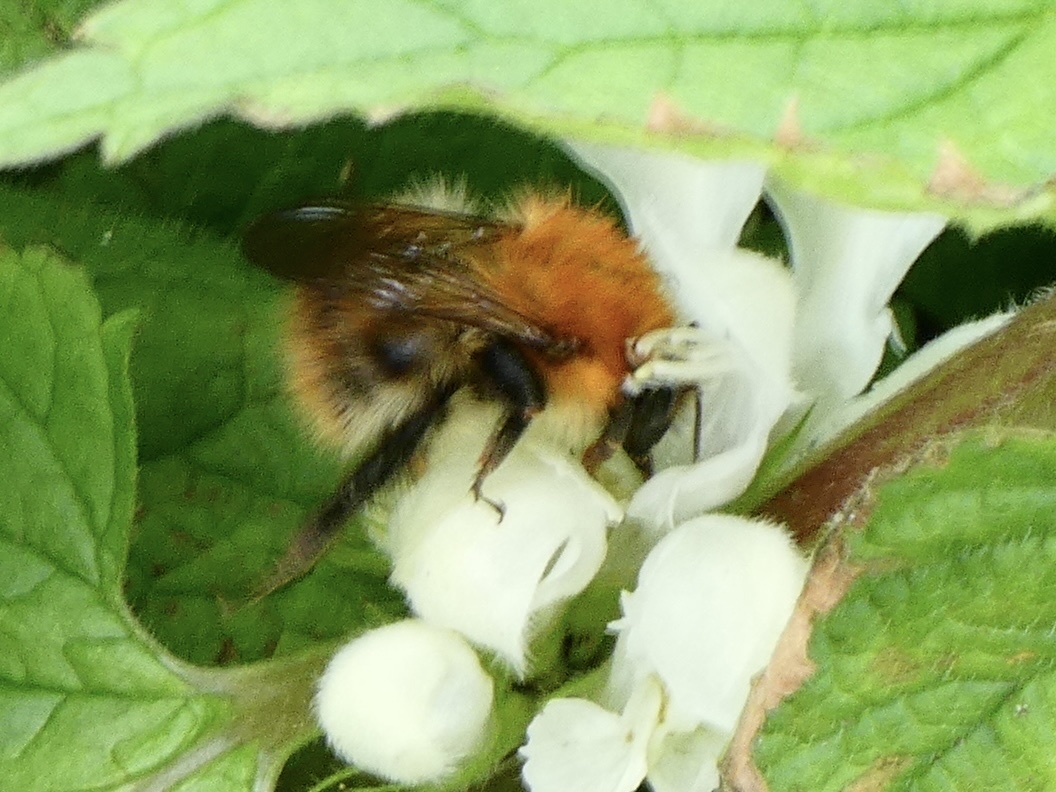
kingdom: Animalia
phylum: Arthropoda
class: Insecta
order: Hymenoptera
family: Apidae
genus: Bombus
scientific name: Bombus pascuorum
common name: Common carder bee
